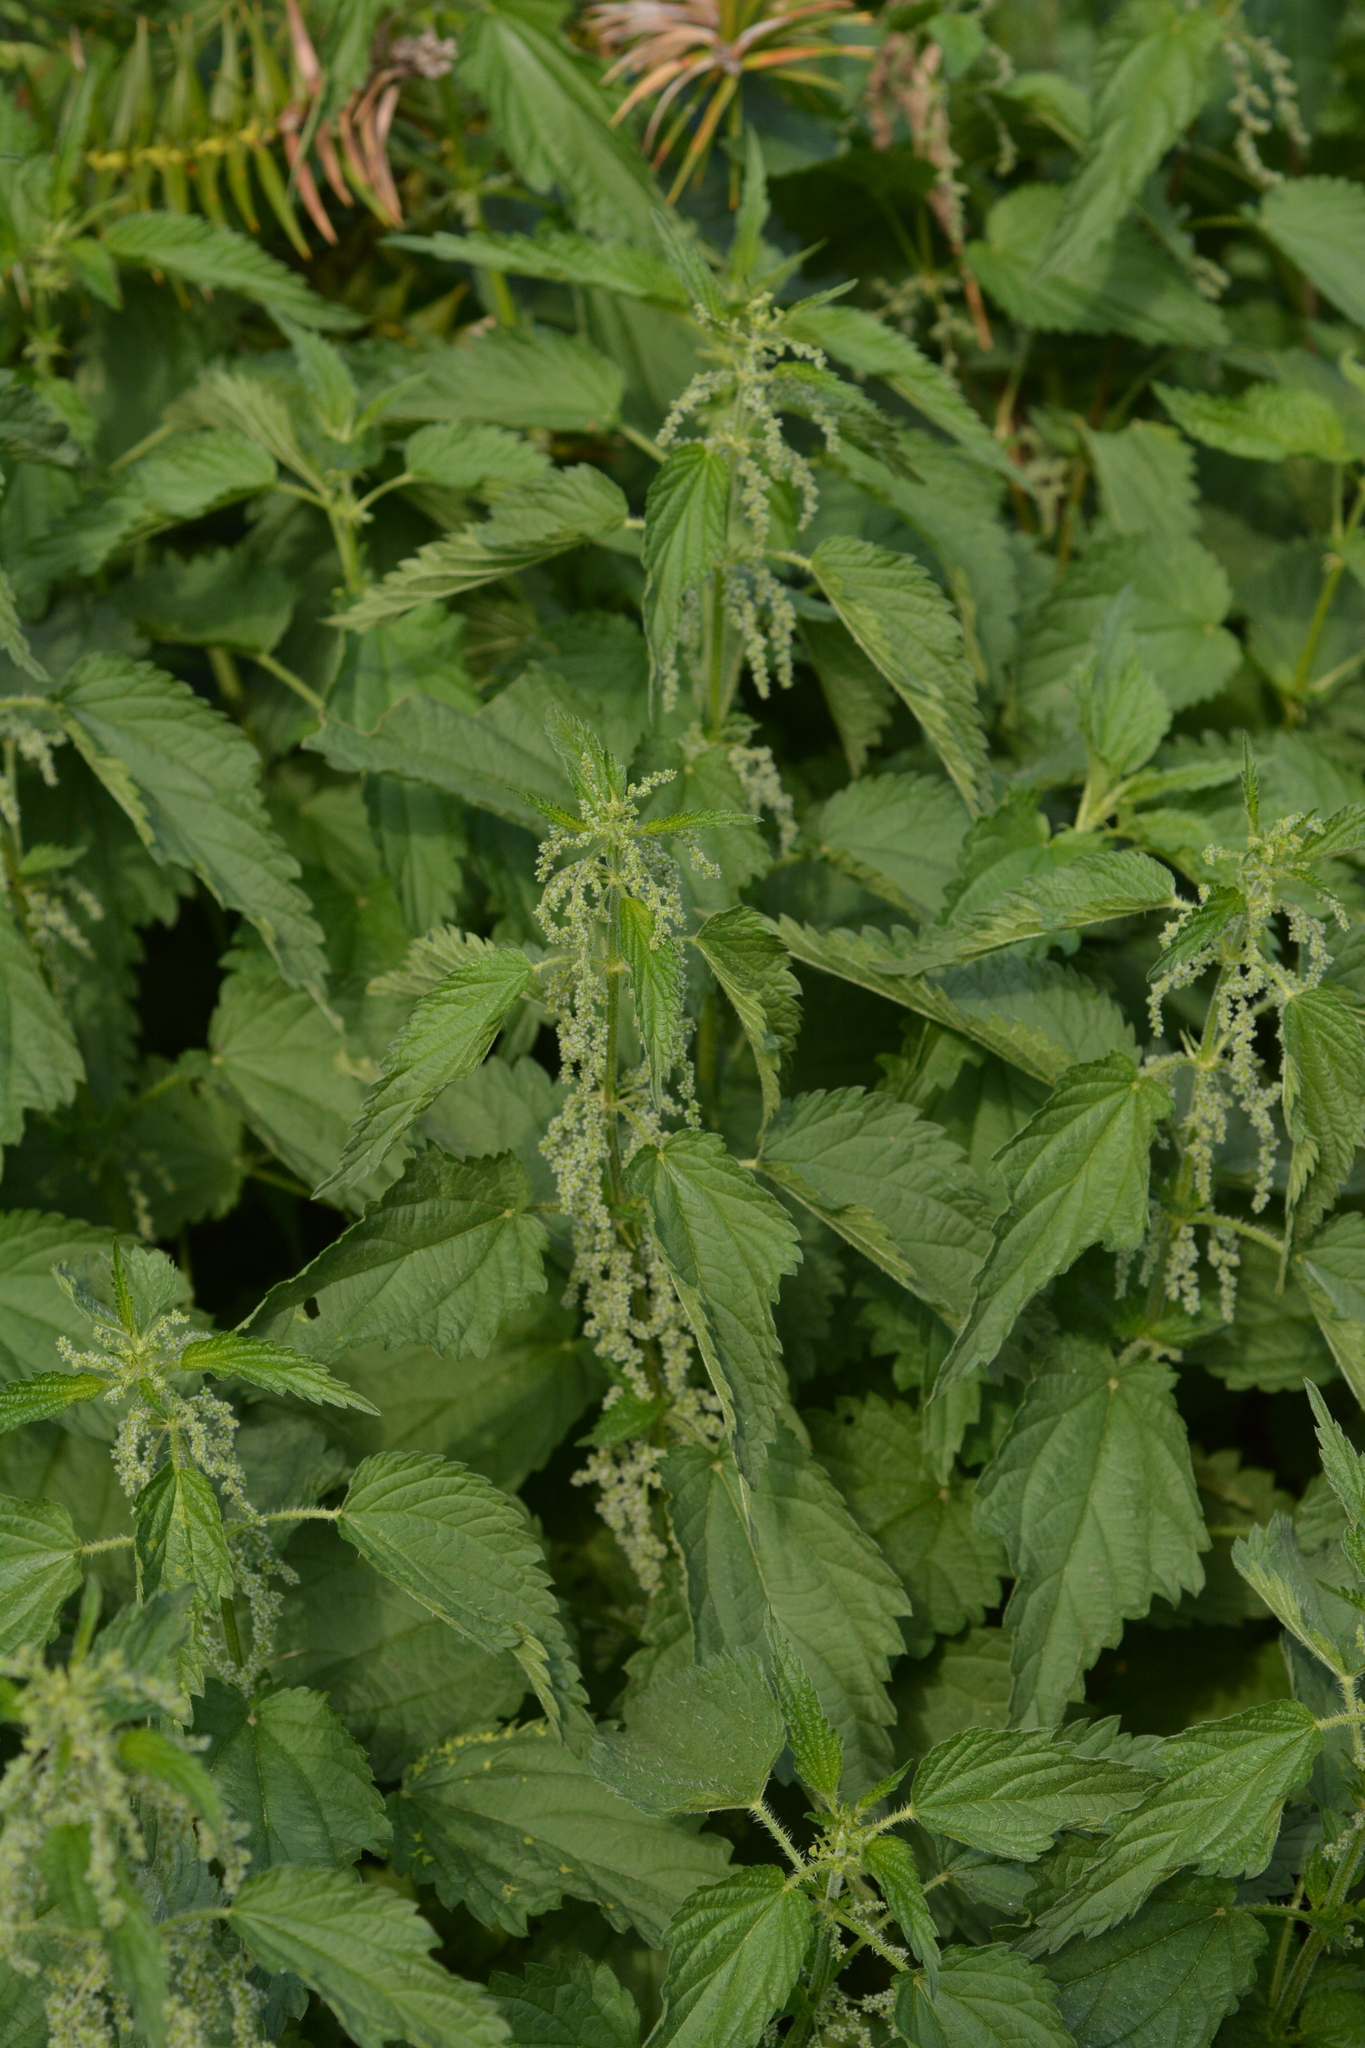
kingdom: Plantae
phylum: Tracheophyta
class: Magnoliopsida
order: Rosales
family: Urticaceae
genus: Urtica
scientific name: Urtica dioica
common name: Common nettle
